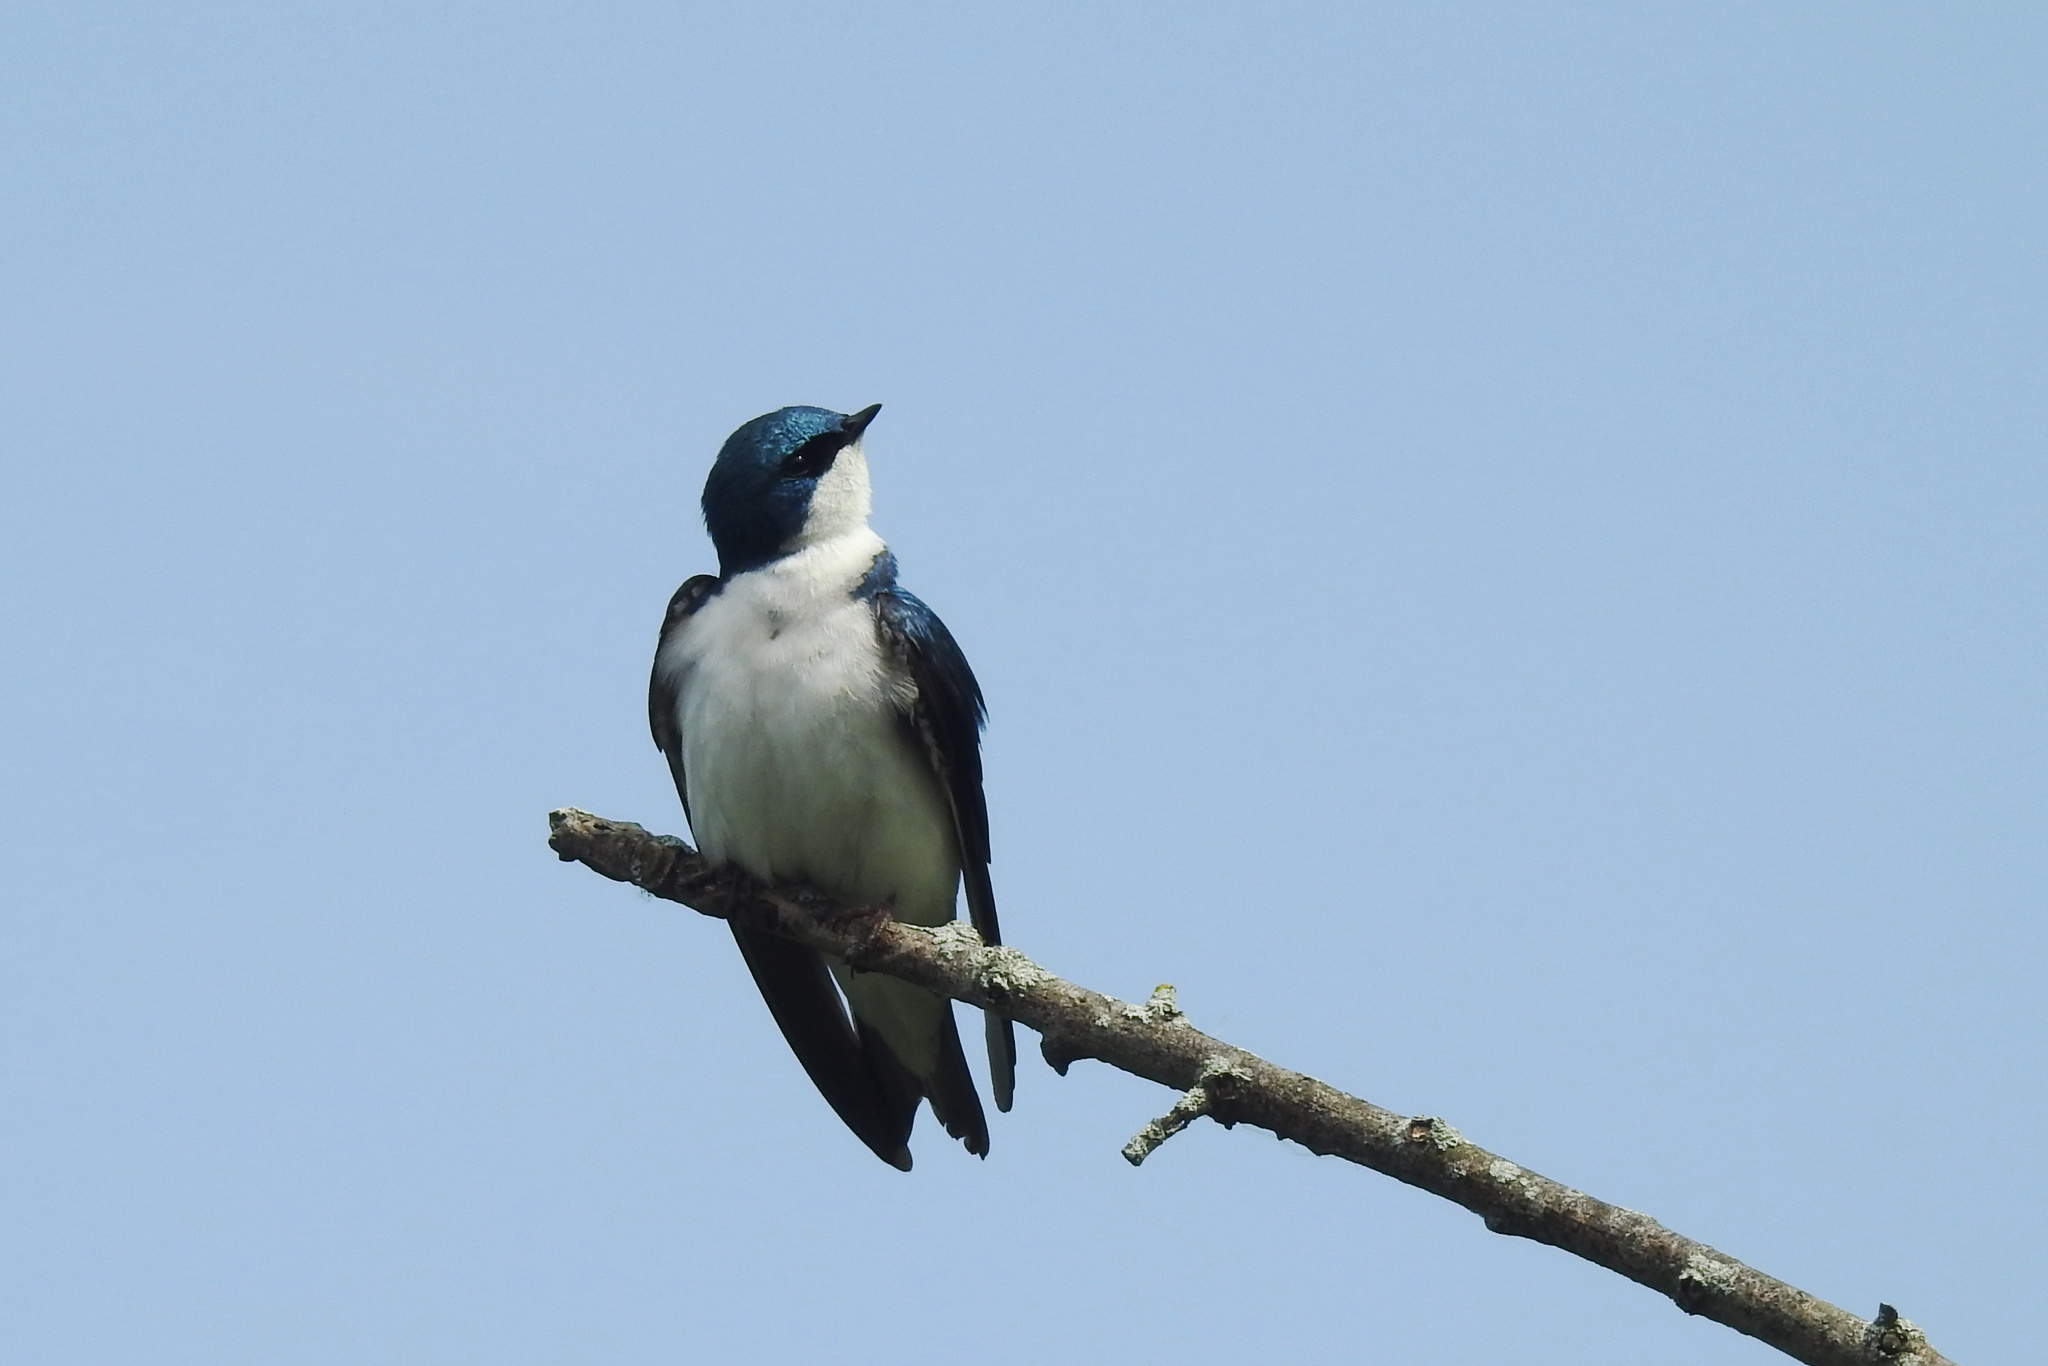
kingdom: Animalia
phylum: Chordata
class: Aves
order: Passeriformes
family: Hirundinidae
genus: Tachycineta
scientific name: Tachycineta bicolor
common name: Tree swallow
